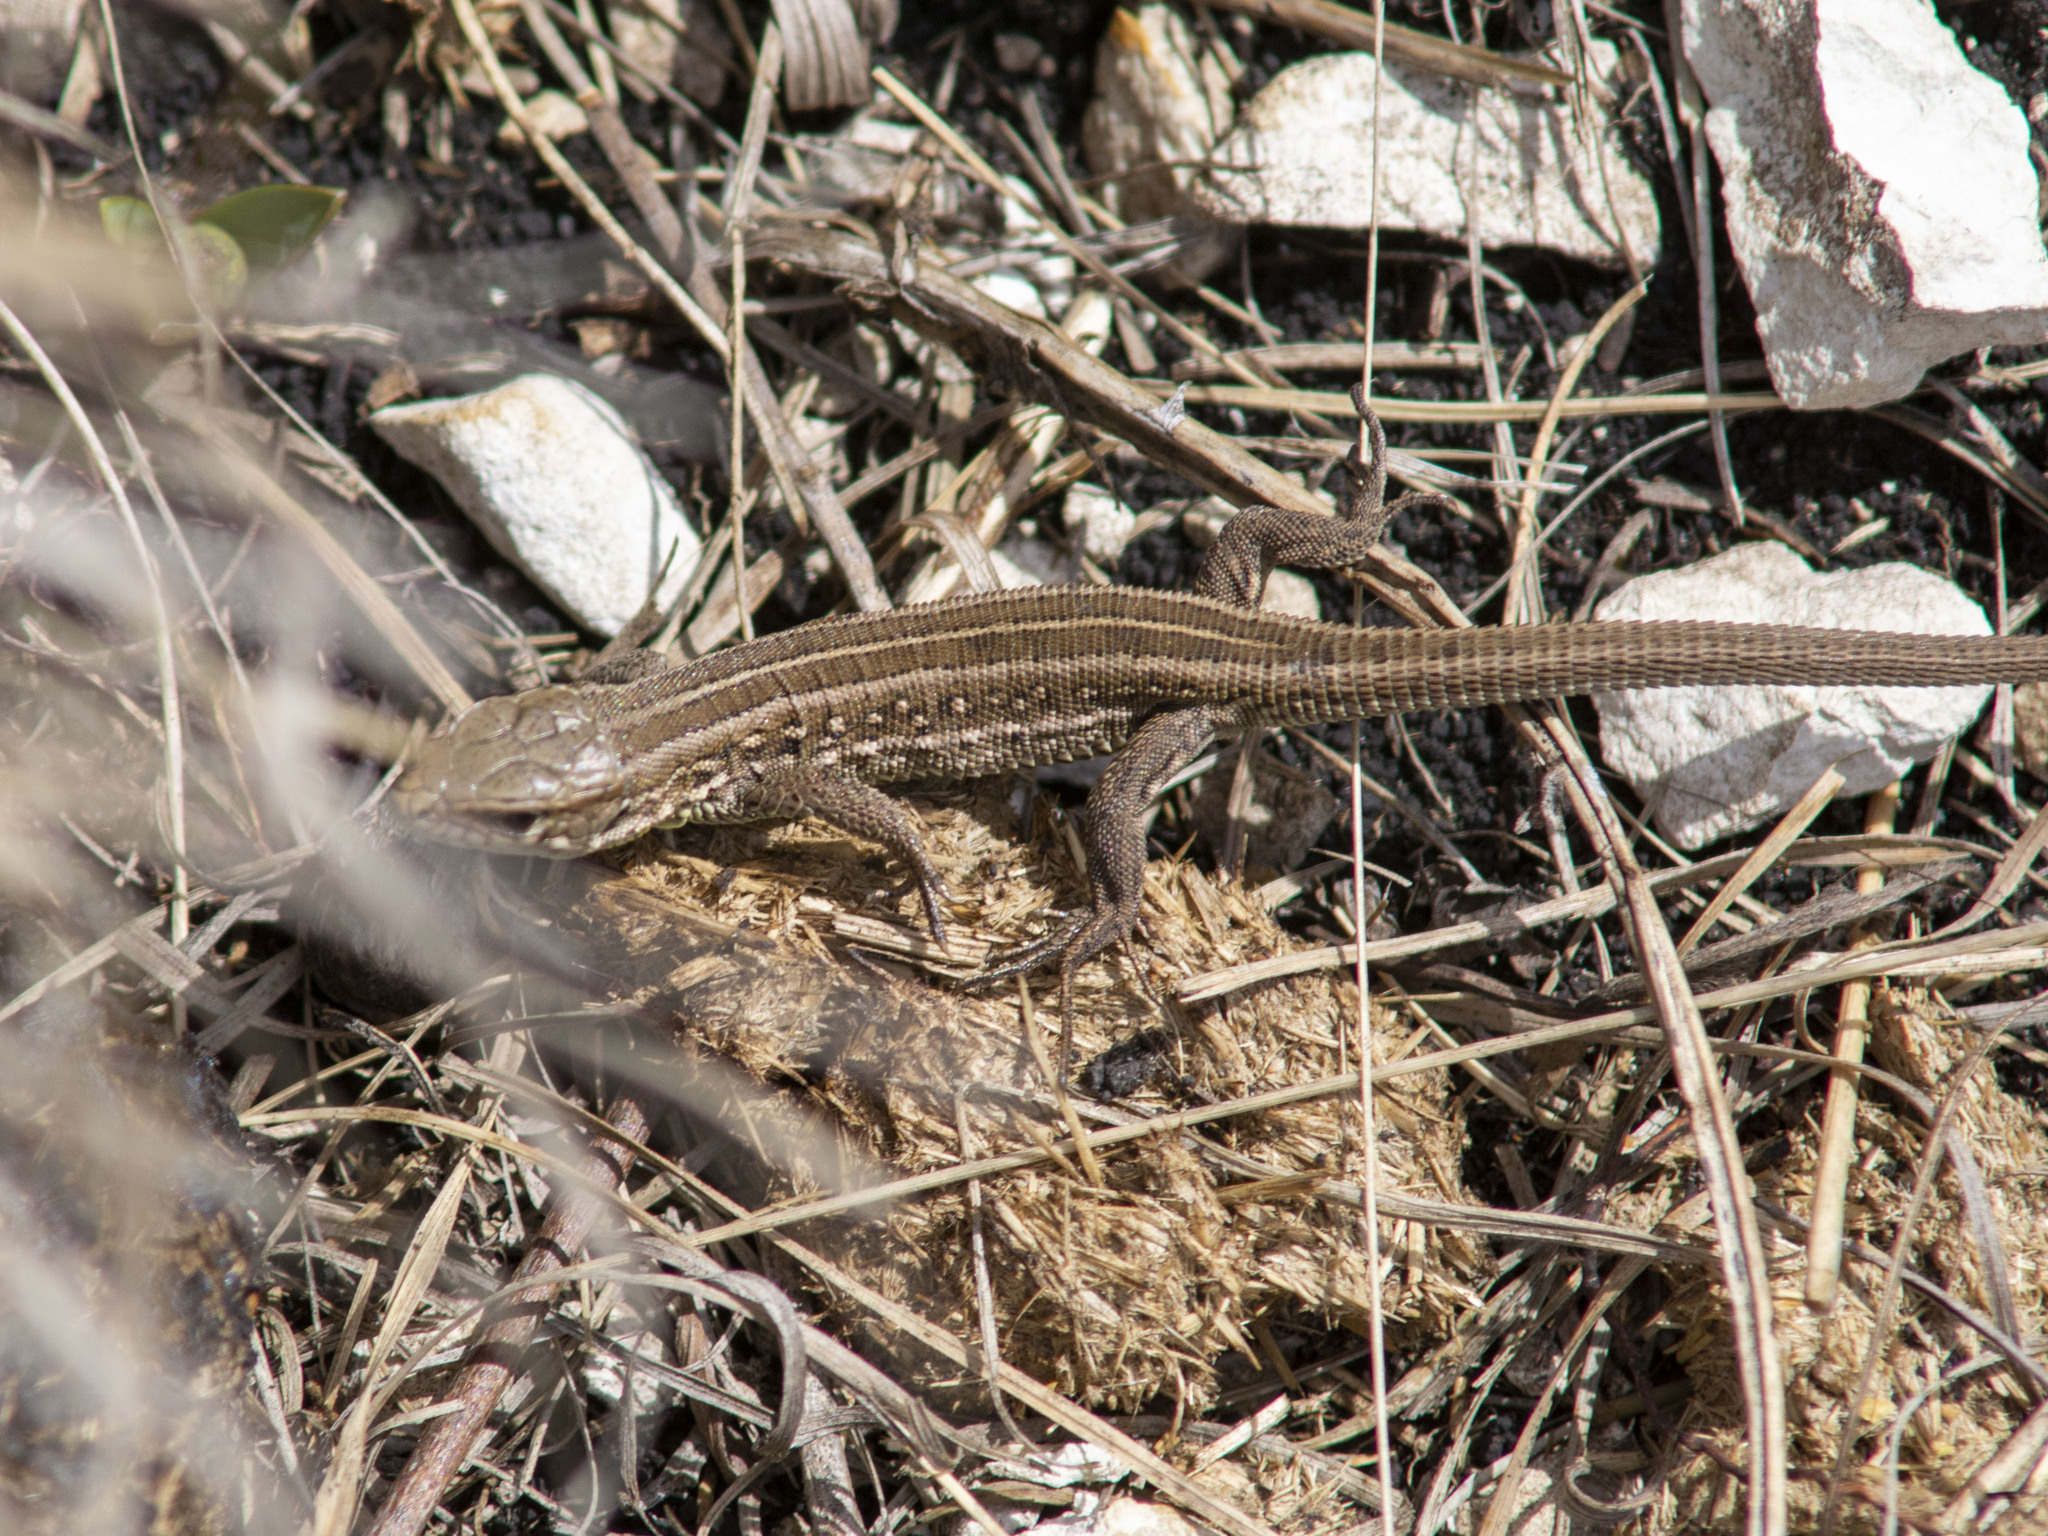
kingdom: Animalia
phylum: Chordata
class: Squamata
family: Lacertidae
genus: Lacerta
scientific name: Lacerta agilis
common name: Sand lizard
